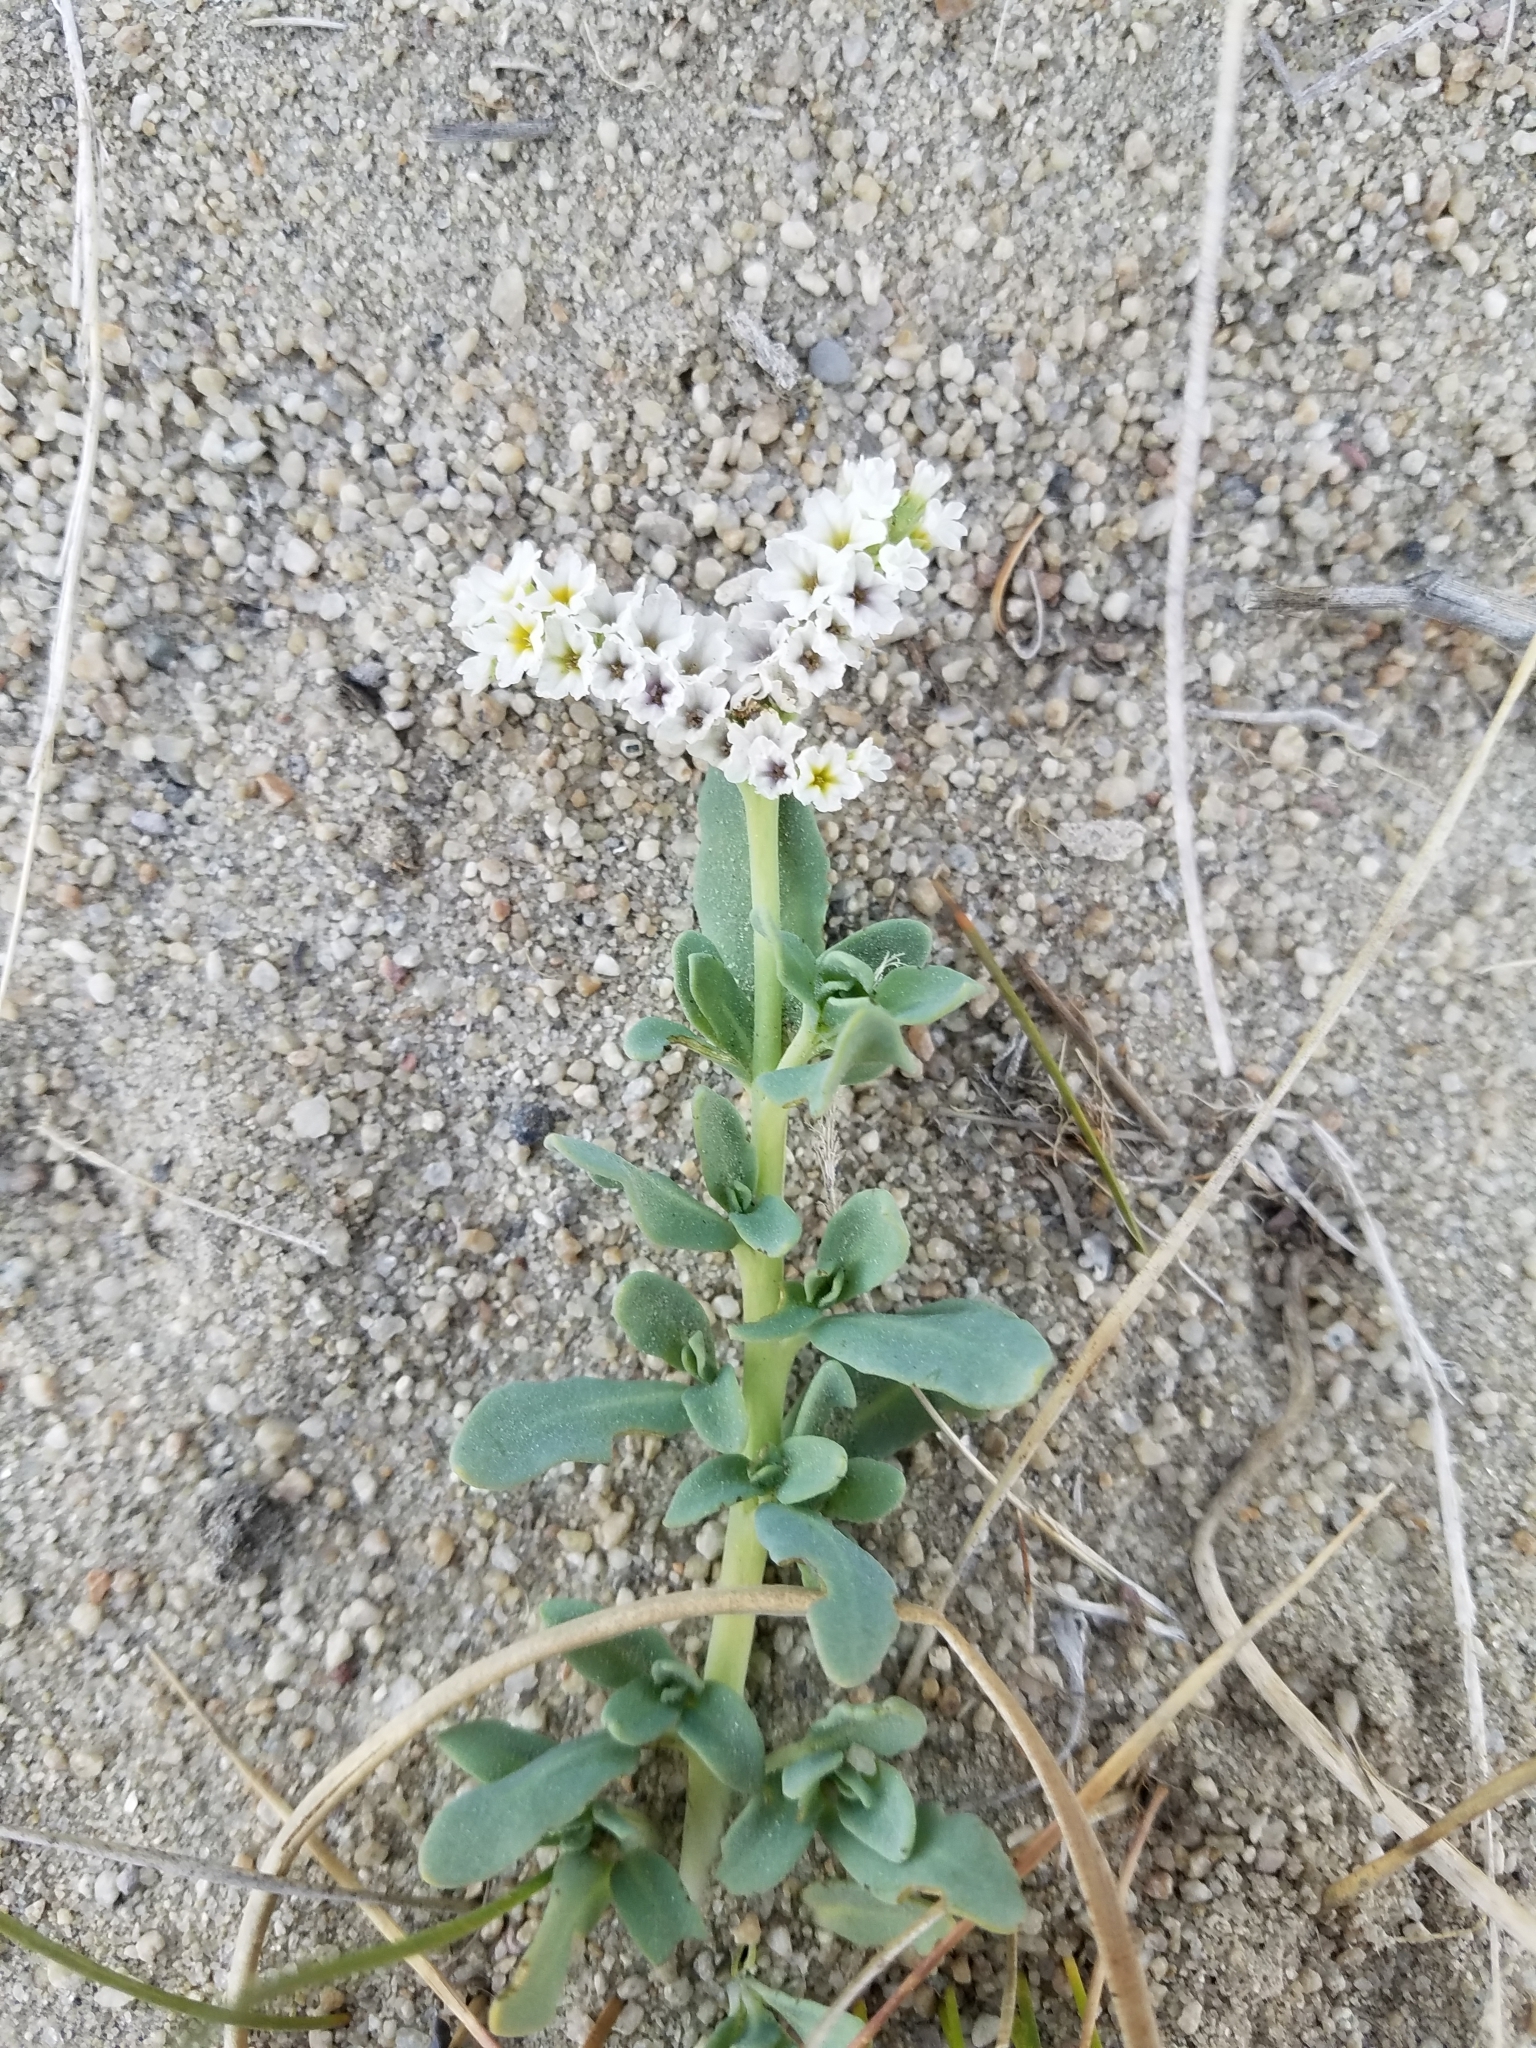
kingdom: Plantae
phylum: Tracheophyta
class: Magnoliopsida
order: Boraginales
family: Heliotropiaceae
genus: Heliotropium
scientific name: Heliotropium curassavicum
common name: Seaside heliotrope
